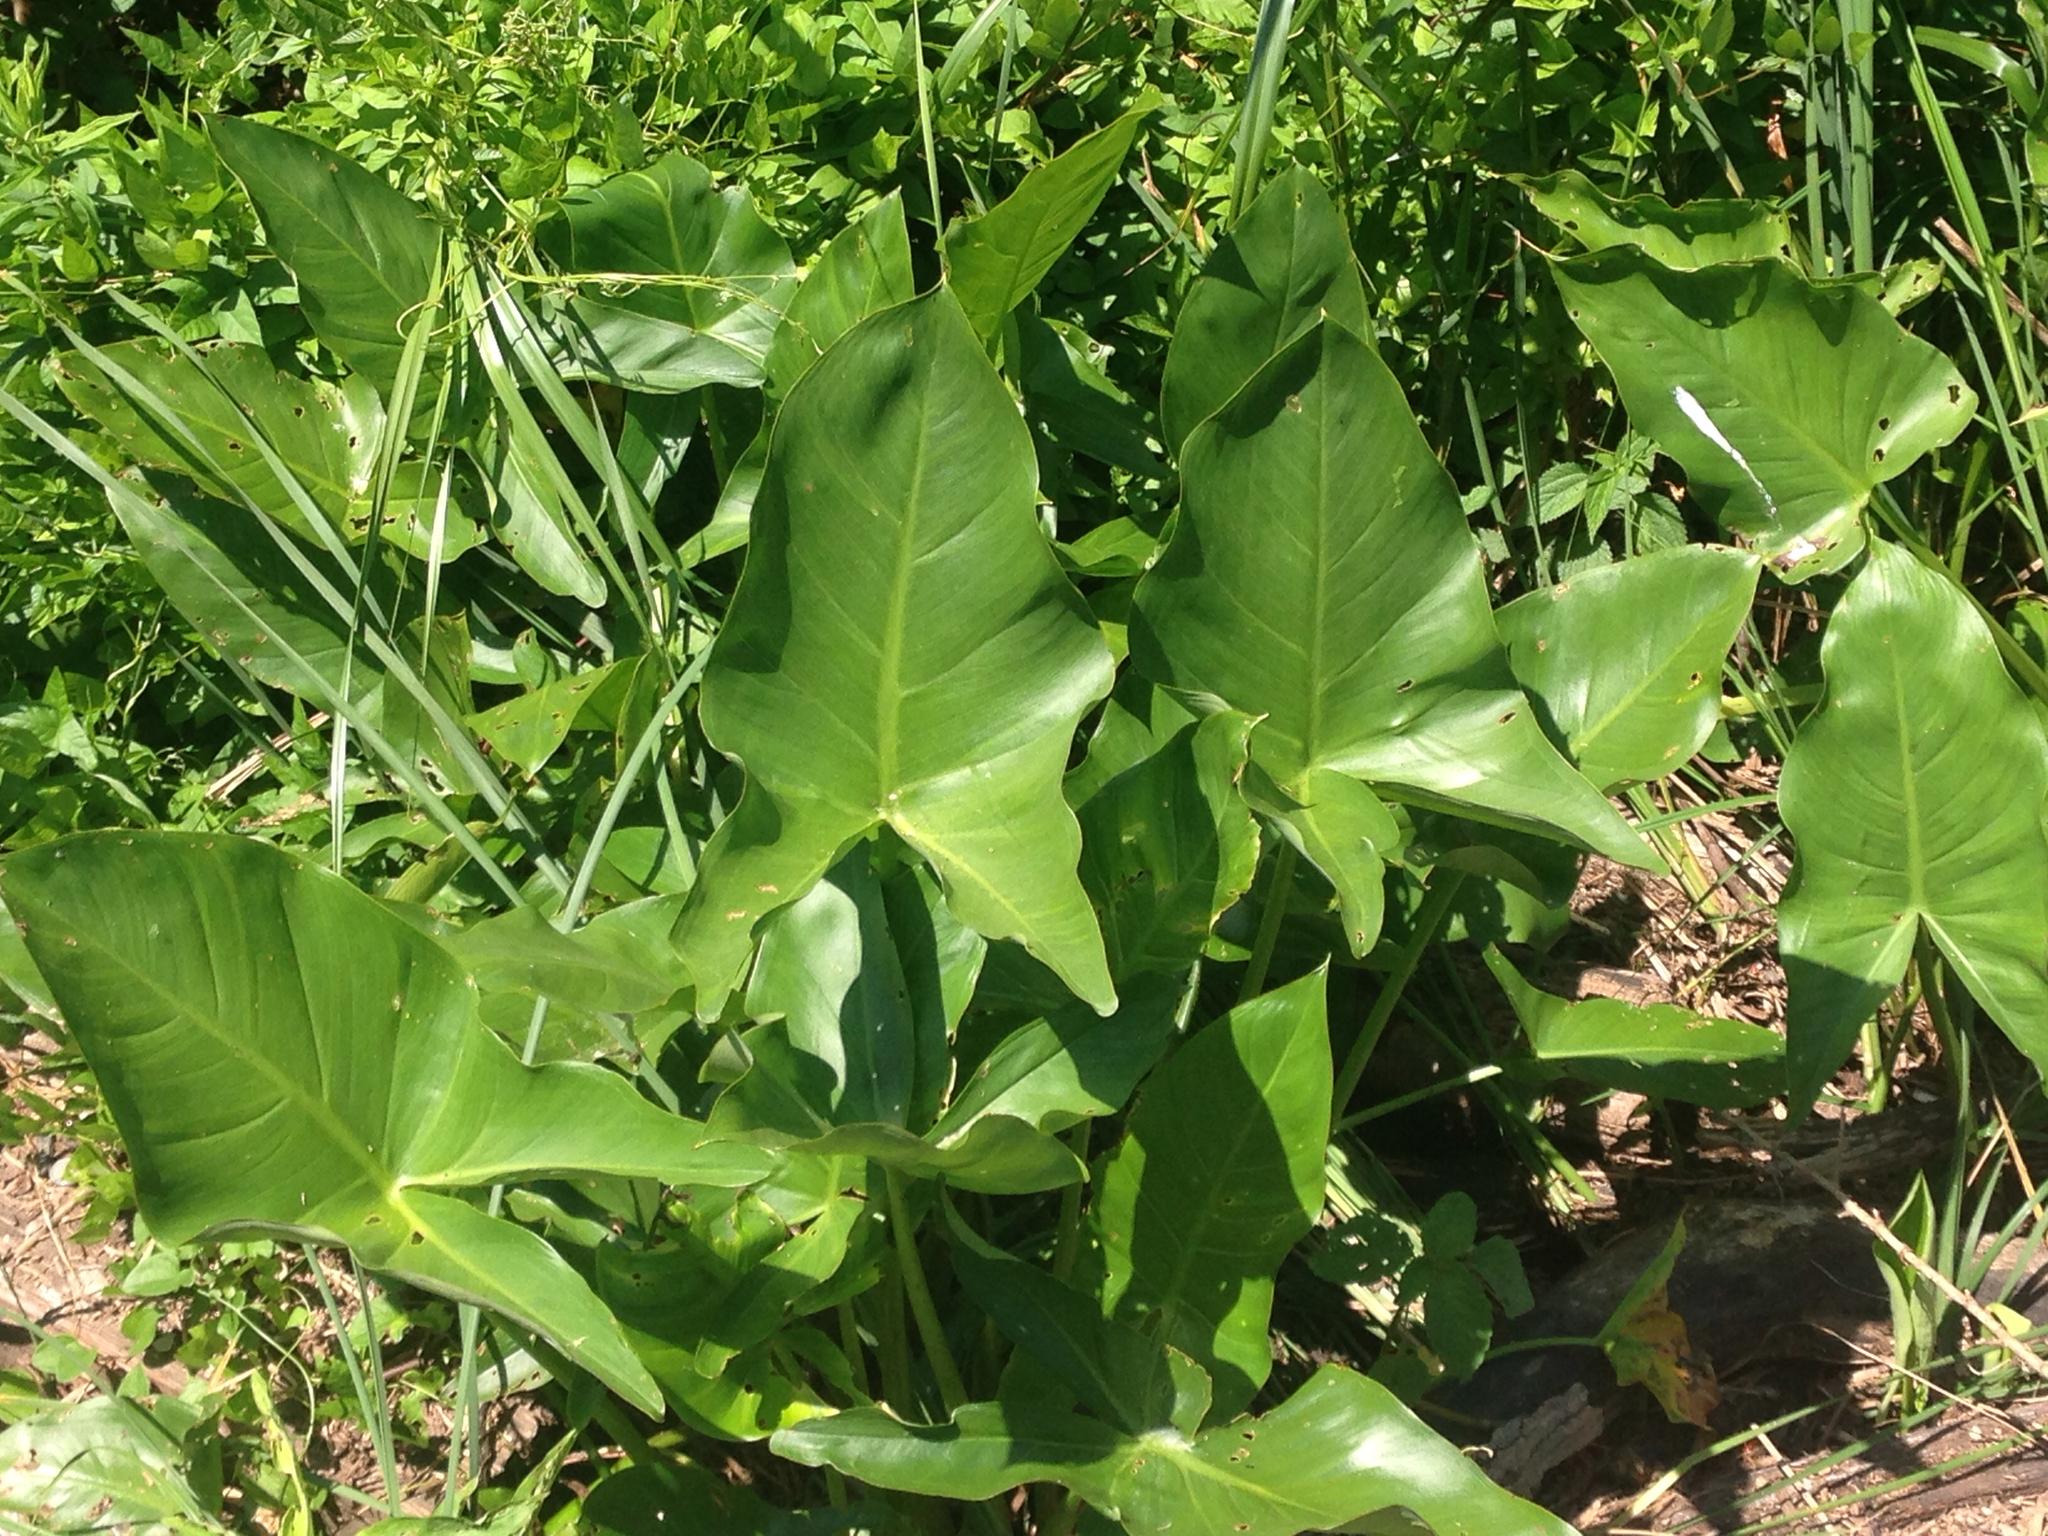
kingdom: Plantae
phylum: Tracheophyta
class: Liliopsida
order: Alismatales
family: Araceae
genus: Peltandra
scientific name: Peltandra virginica
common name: Arrow arum
